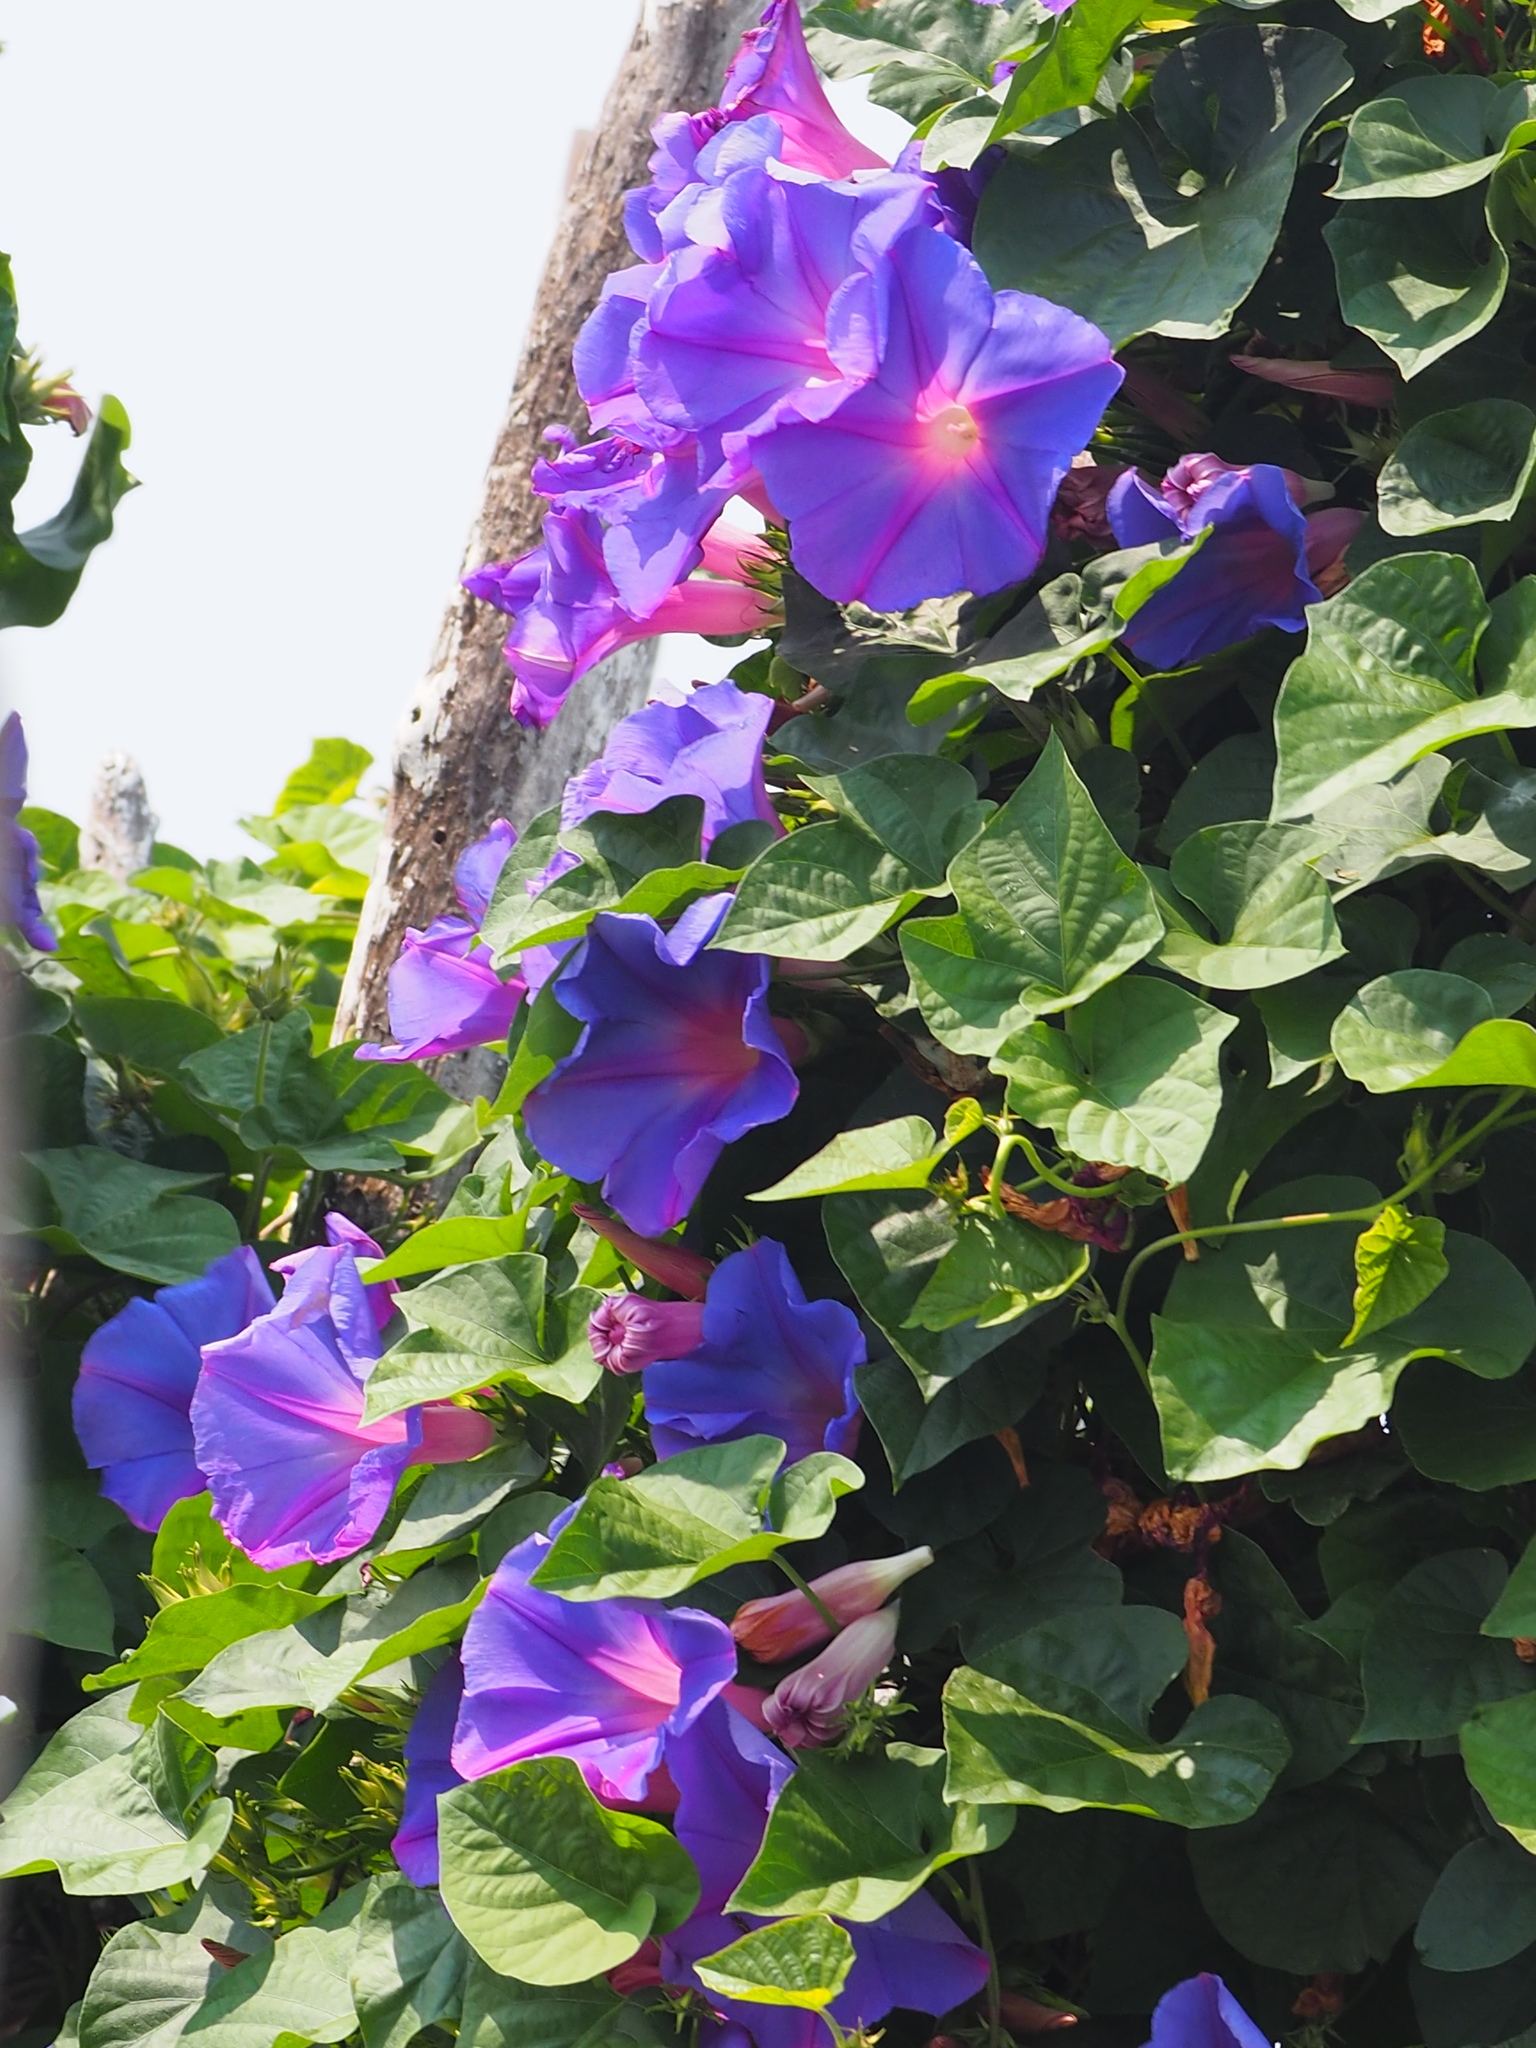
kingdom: Plantae
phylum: Tracheophyta
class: Magnoliopsida
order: Solanales
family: Convolvulaceae
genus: Ipomoea
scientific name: Ipomoea indica
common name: Blue dawnflower
